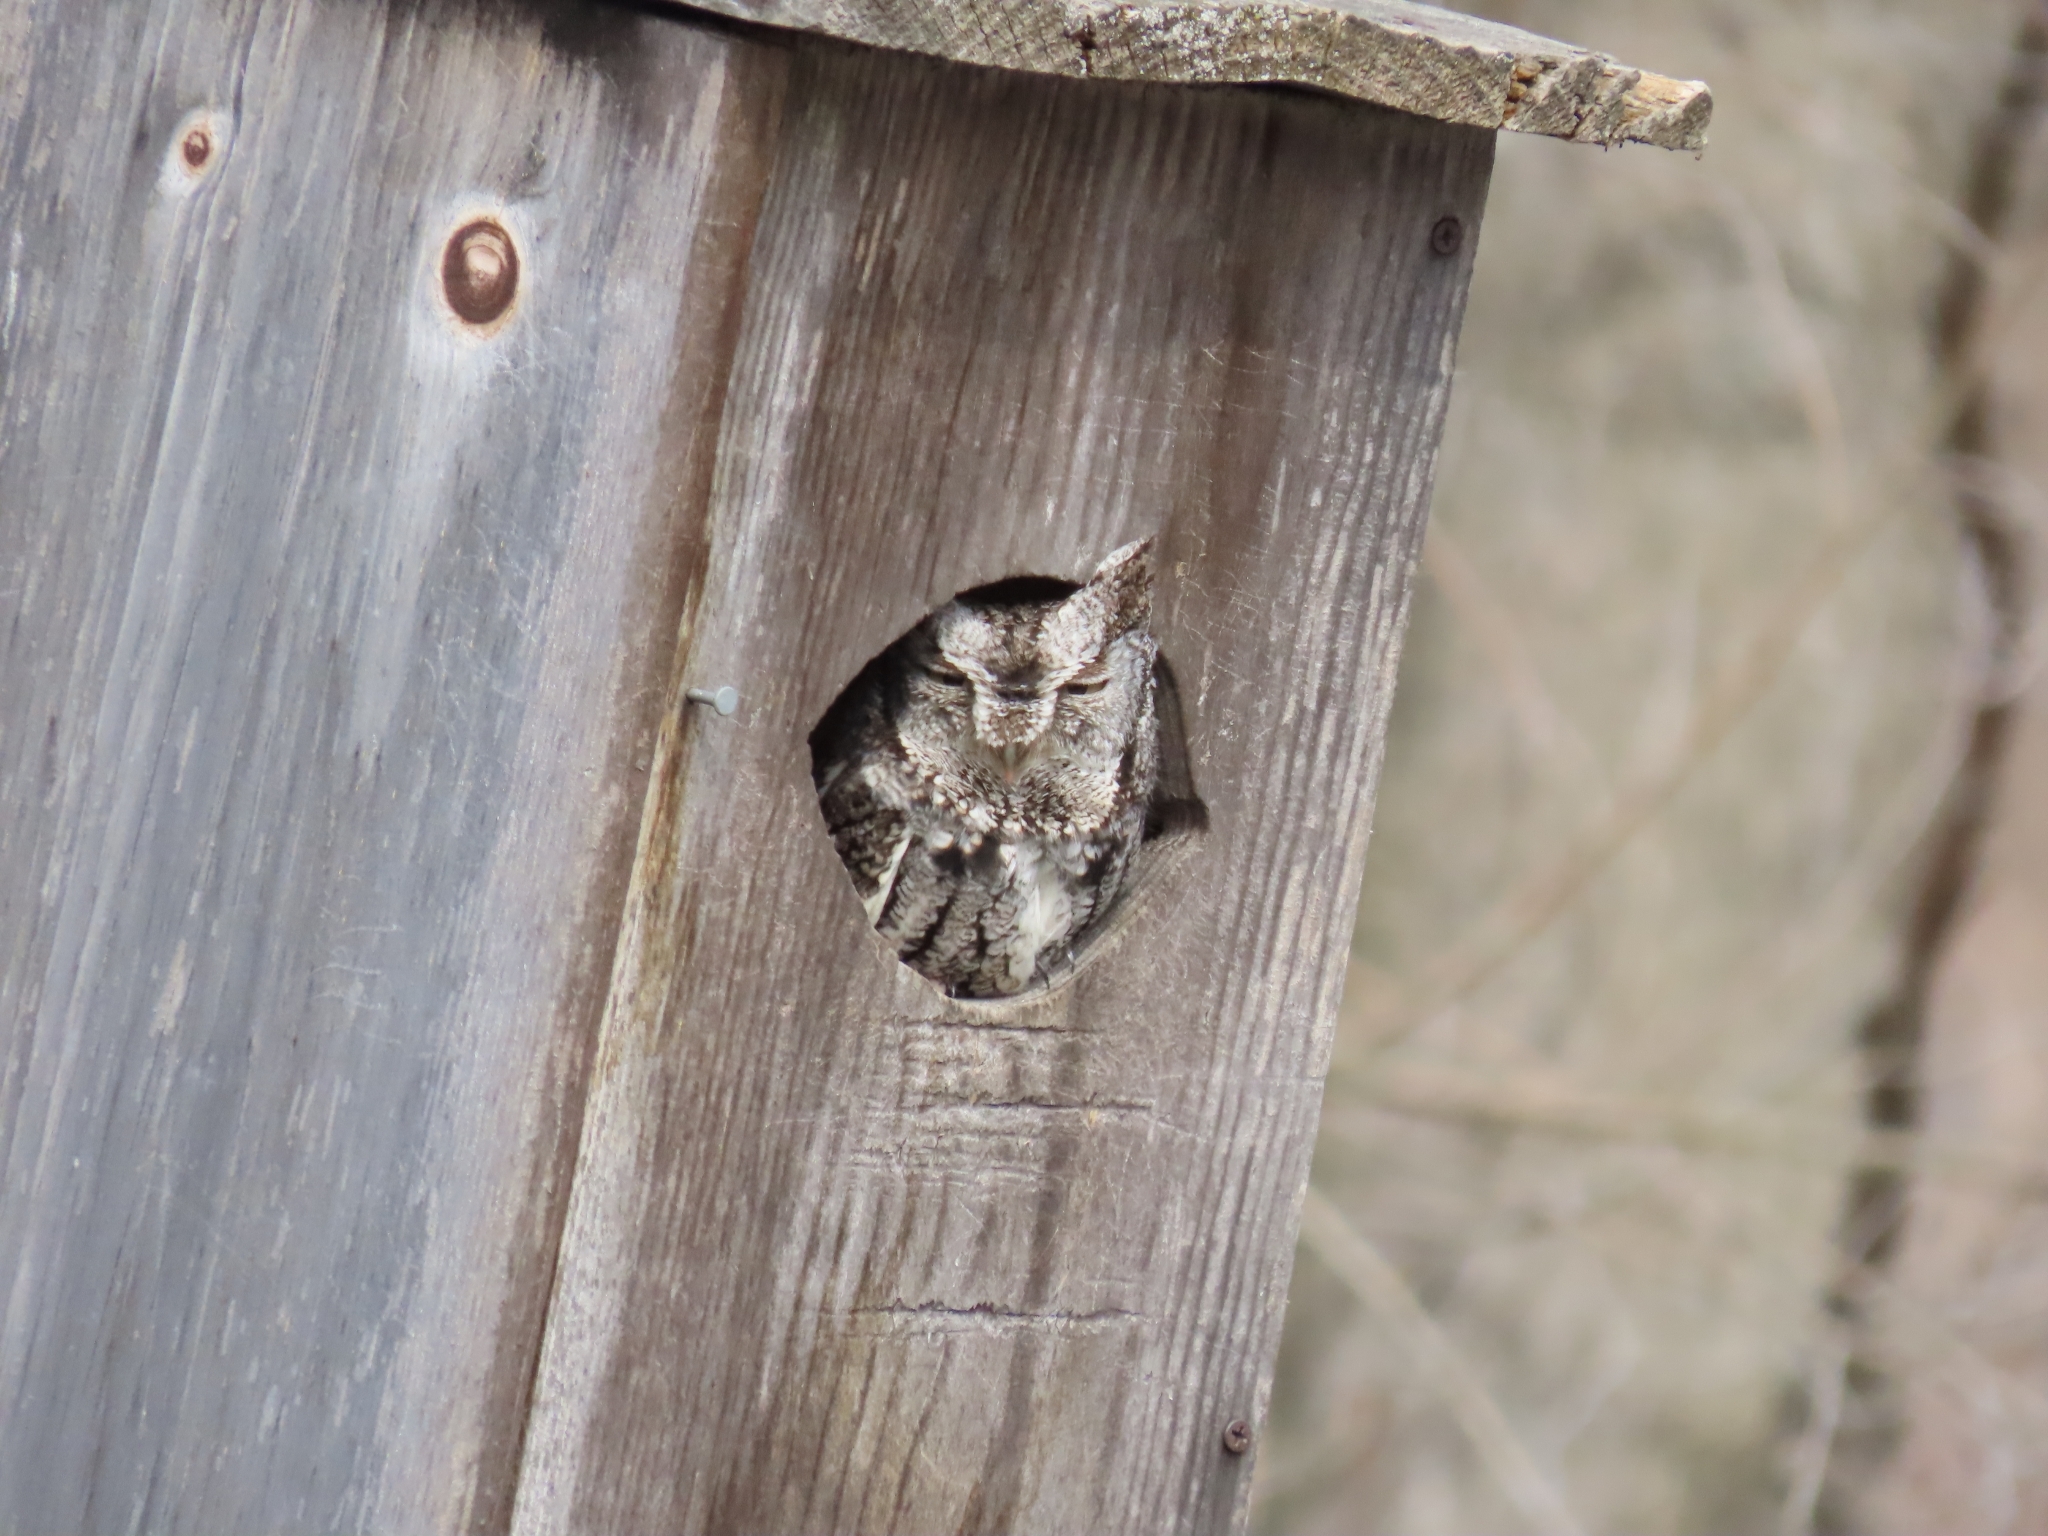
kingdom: Animalia
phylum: Chordata
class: Aves
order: Strigiformes
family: Strigidae
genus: Megascops
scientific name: Megascops asio
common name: Eastern screech-owl
